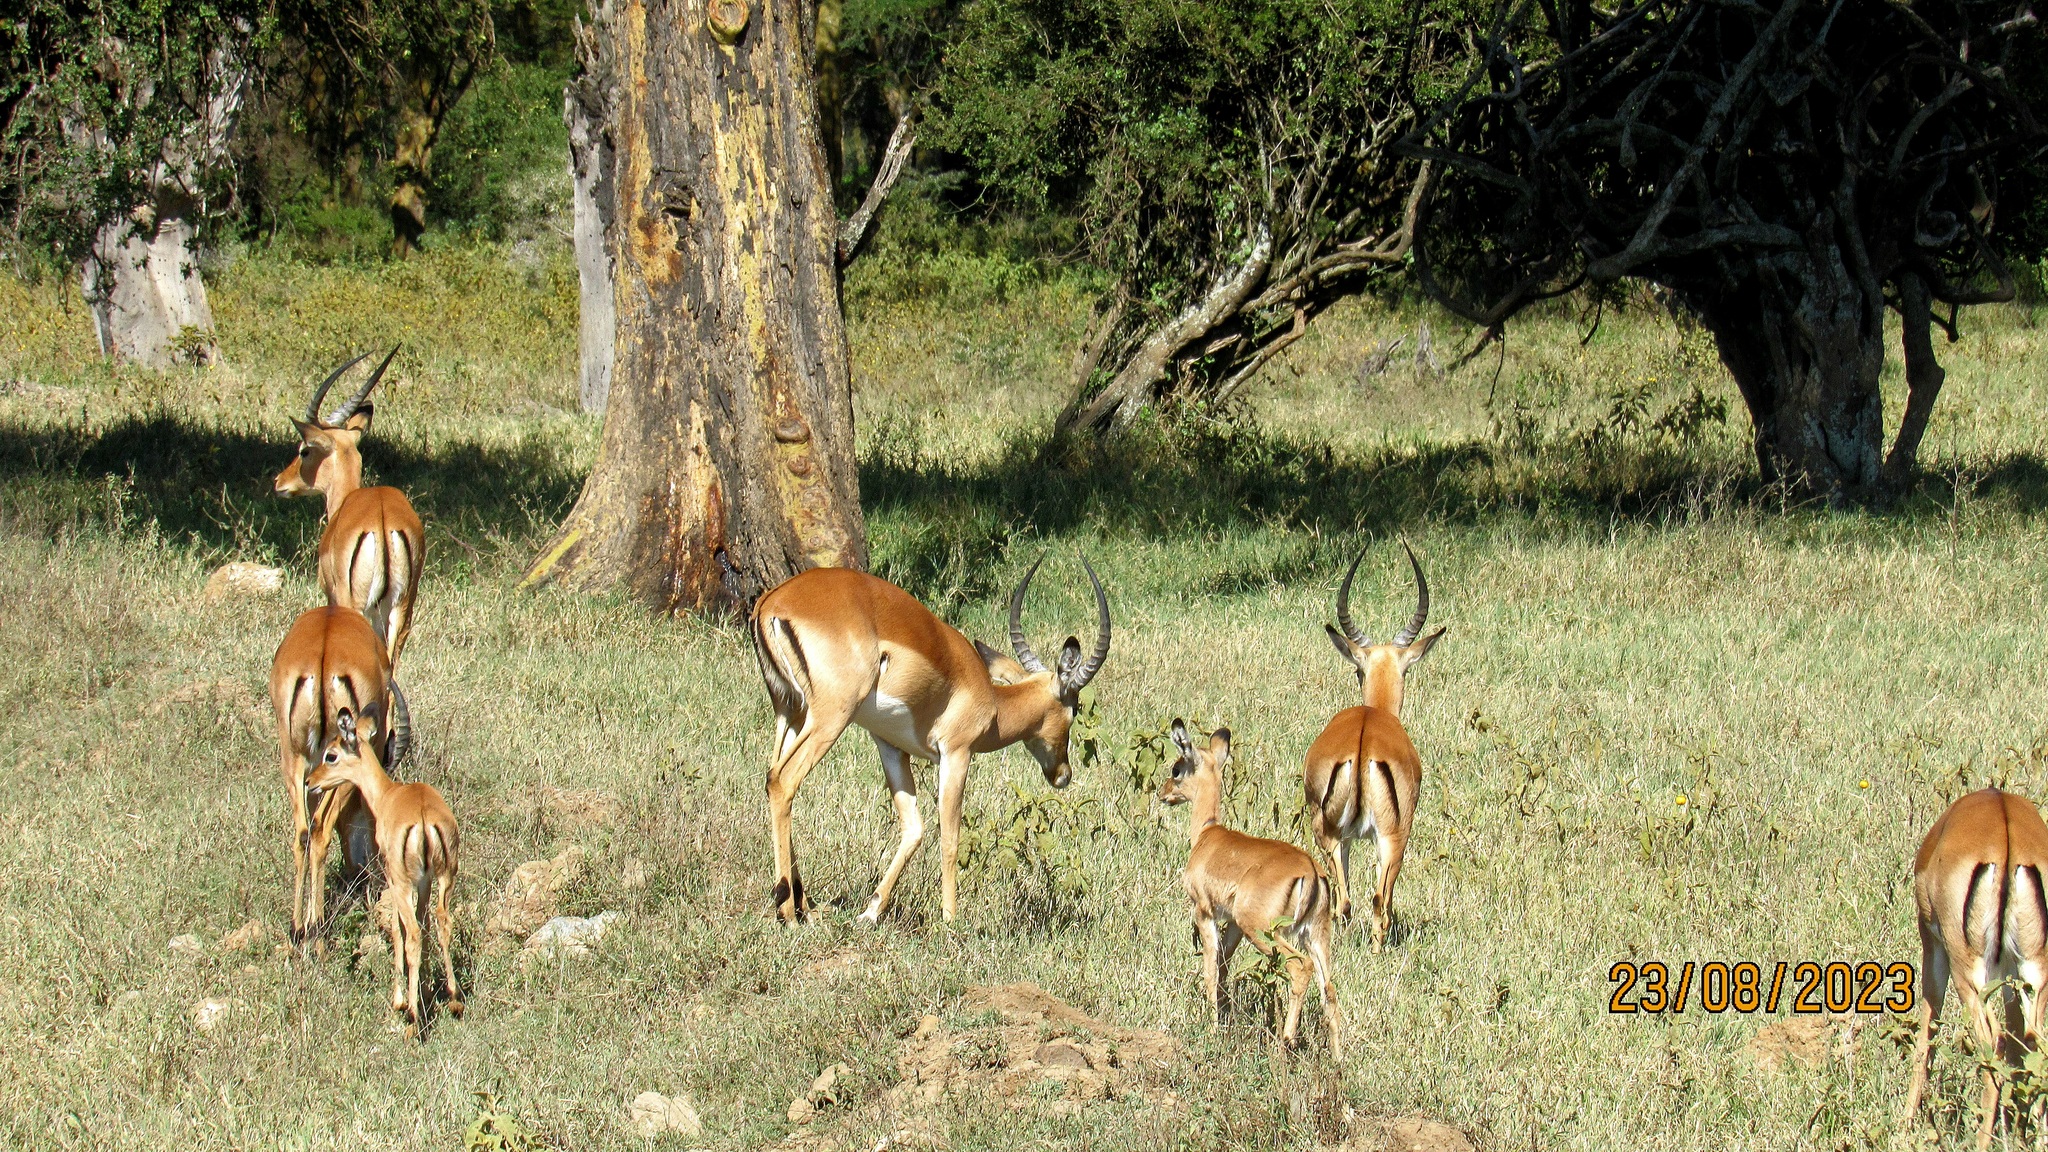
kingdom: Animalia
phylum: Chordata
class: Mammalia
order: Artiodactyla
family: Bovidae
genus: Aepyceros
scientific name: Aepyceros melampus
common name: Impala
